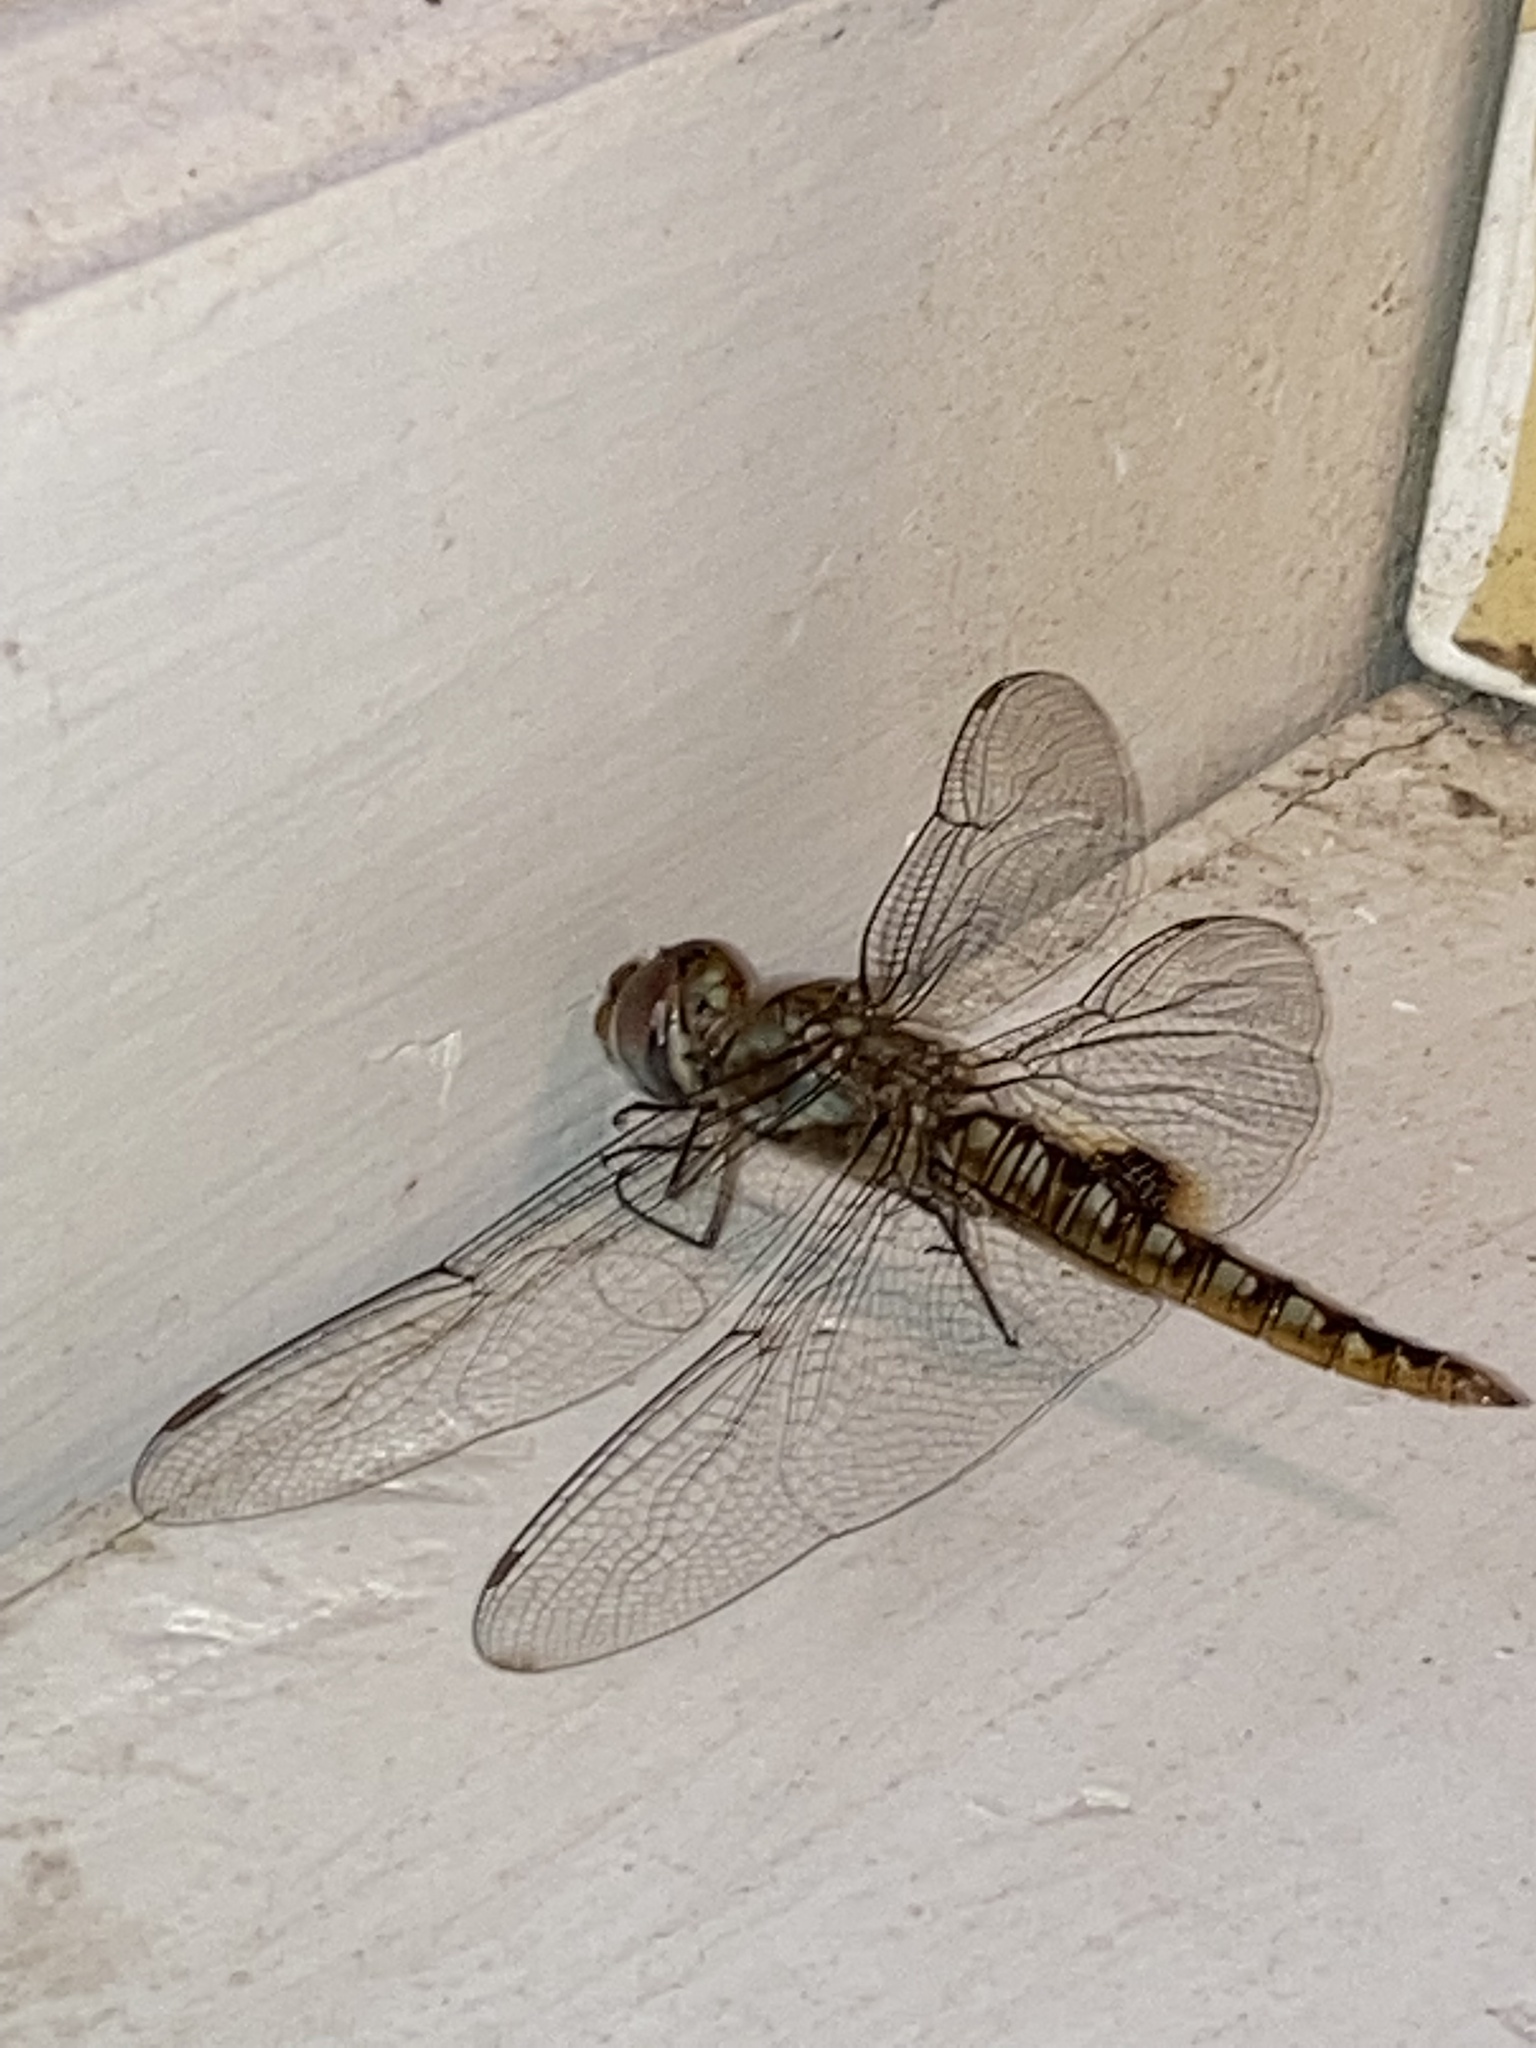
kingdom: Animalia
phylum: Arthropoda
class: Insecta
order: Odonata
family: Libellulidae
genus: Pantala
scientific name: Pantala hymenaea
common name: Spot-winged glider
